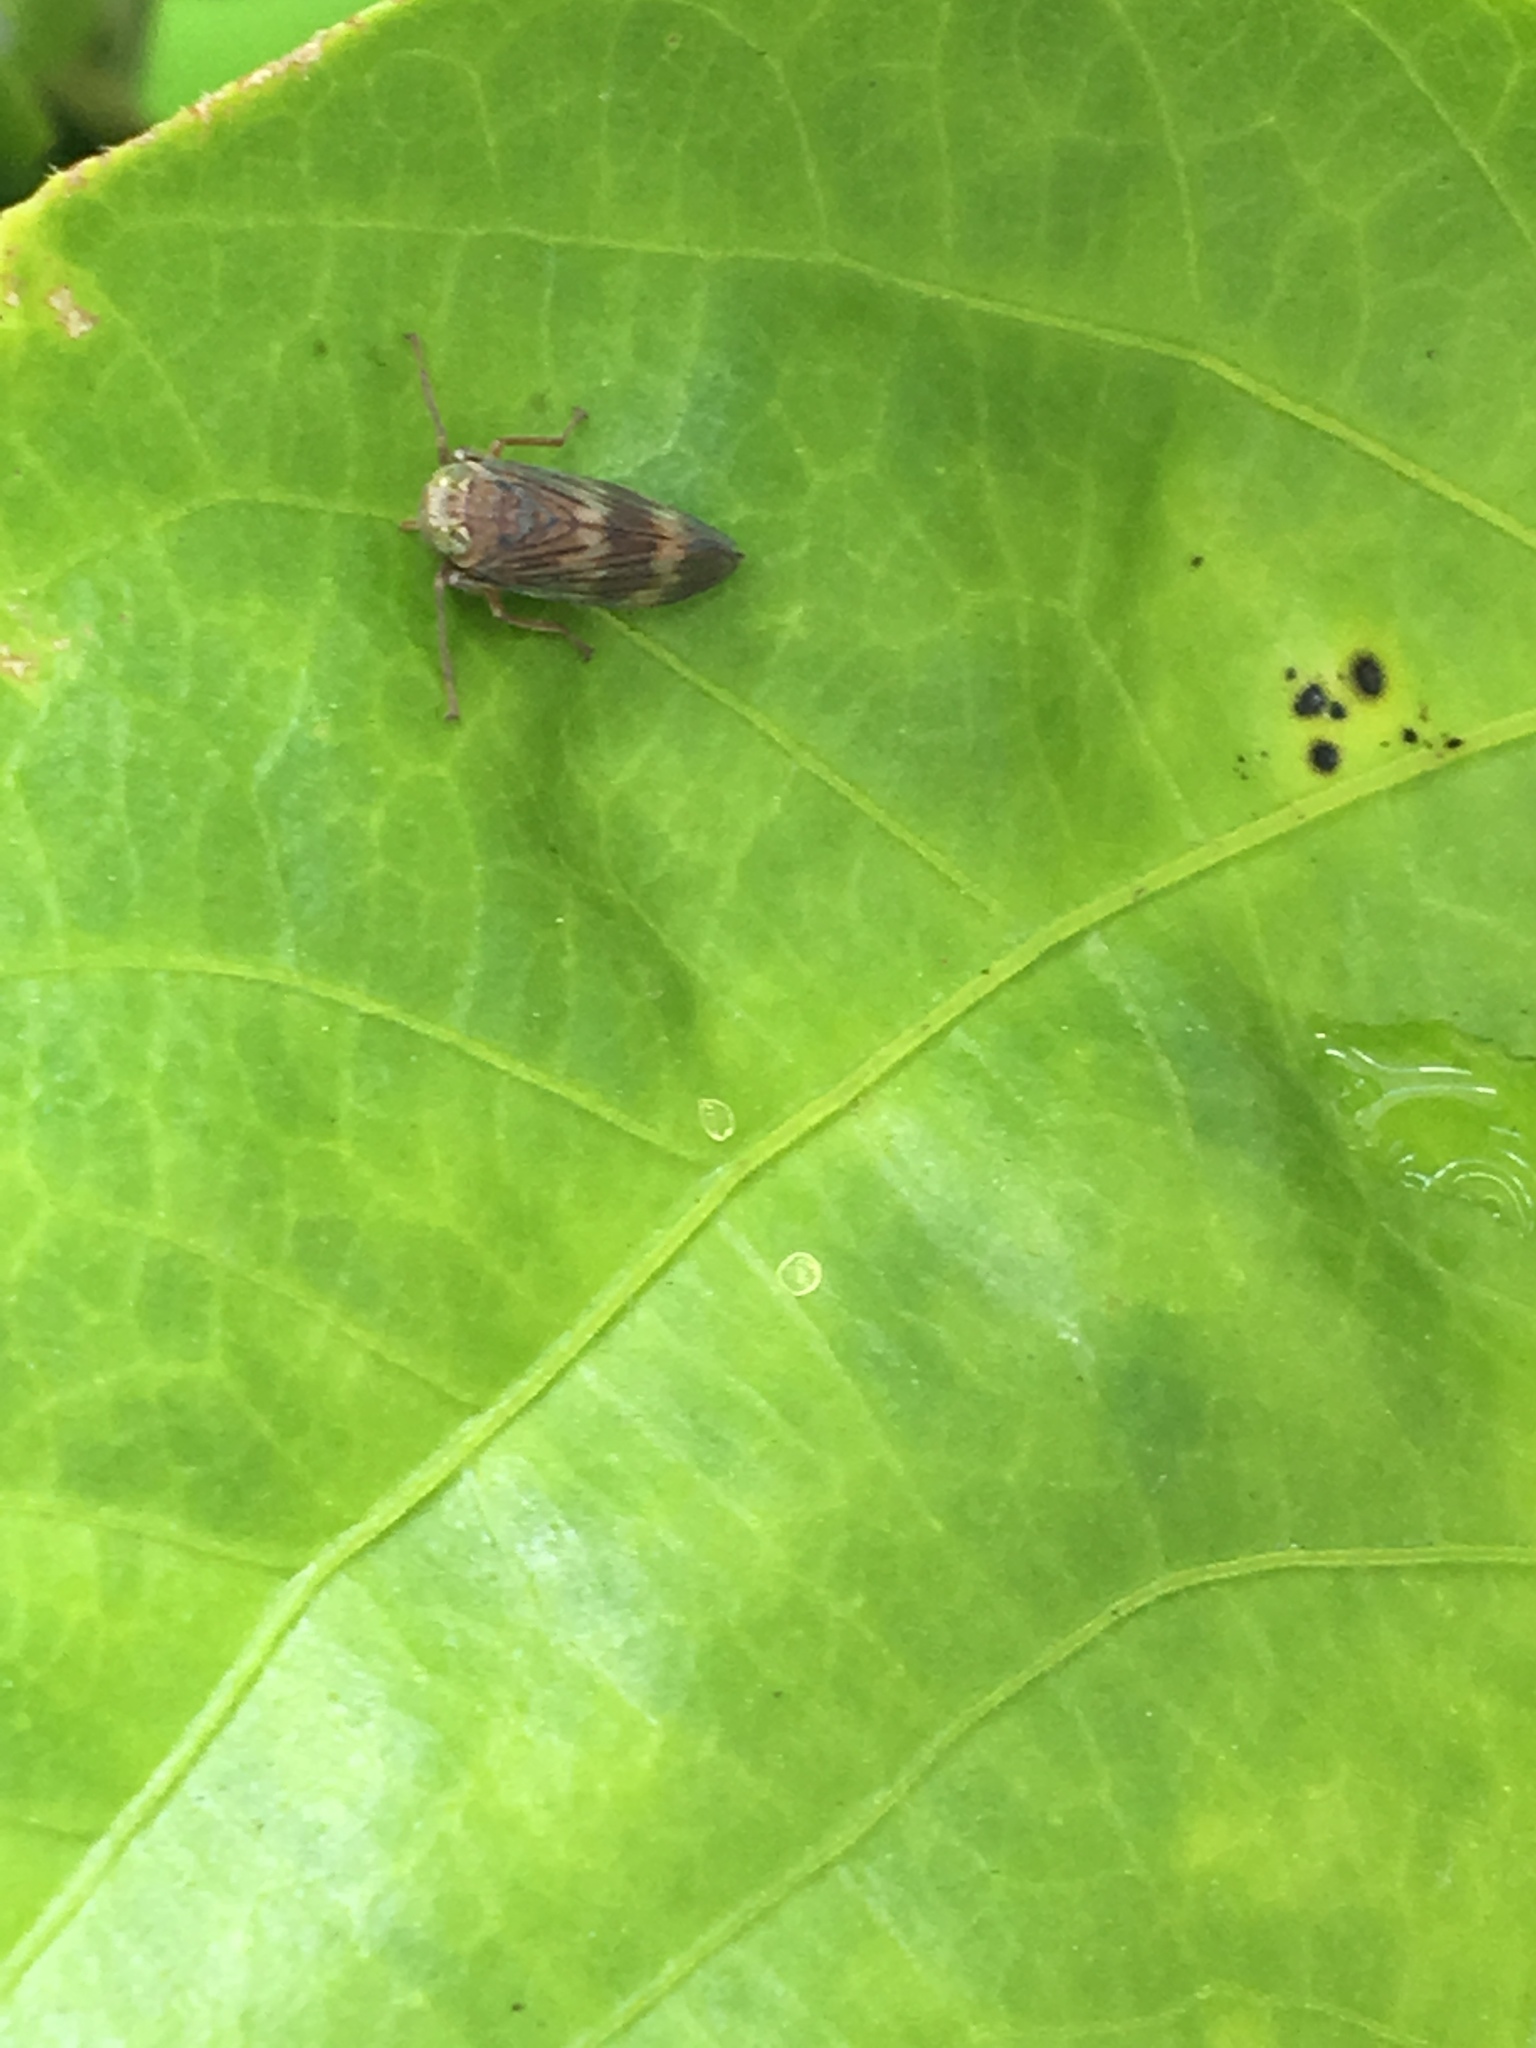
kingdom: Animalia
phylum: Arthropoda
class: Insecta
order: Hemiptera
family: Cicadellidae
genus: Jikradia
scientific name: Jikradia olitoria
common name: Coppery leafhopper
